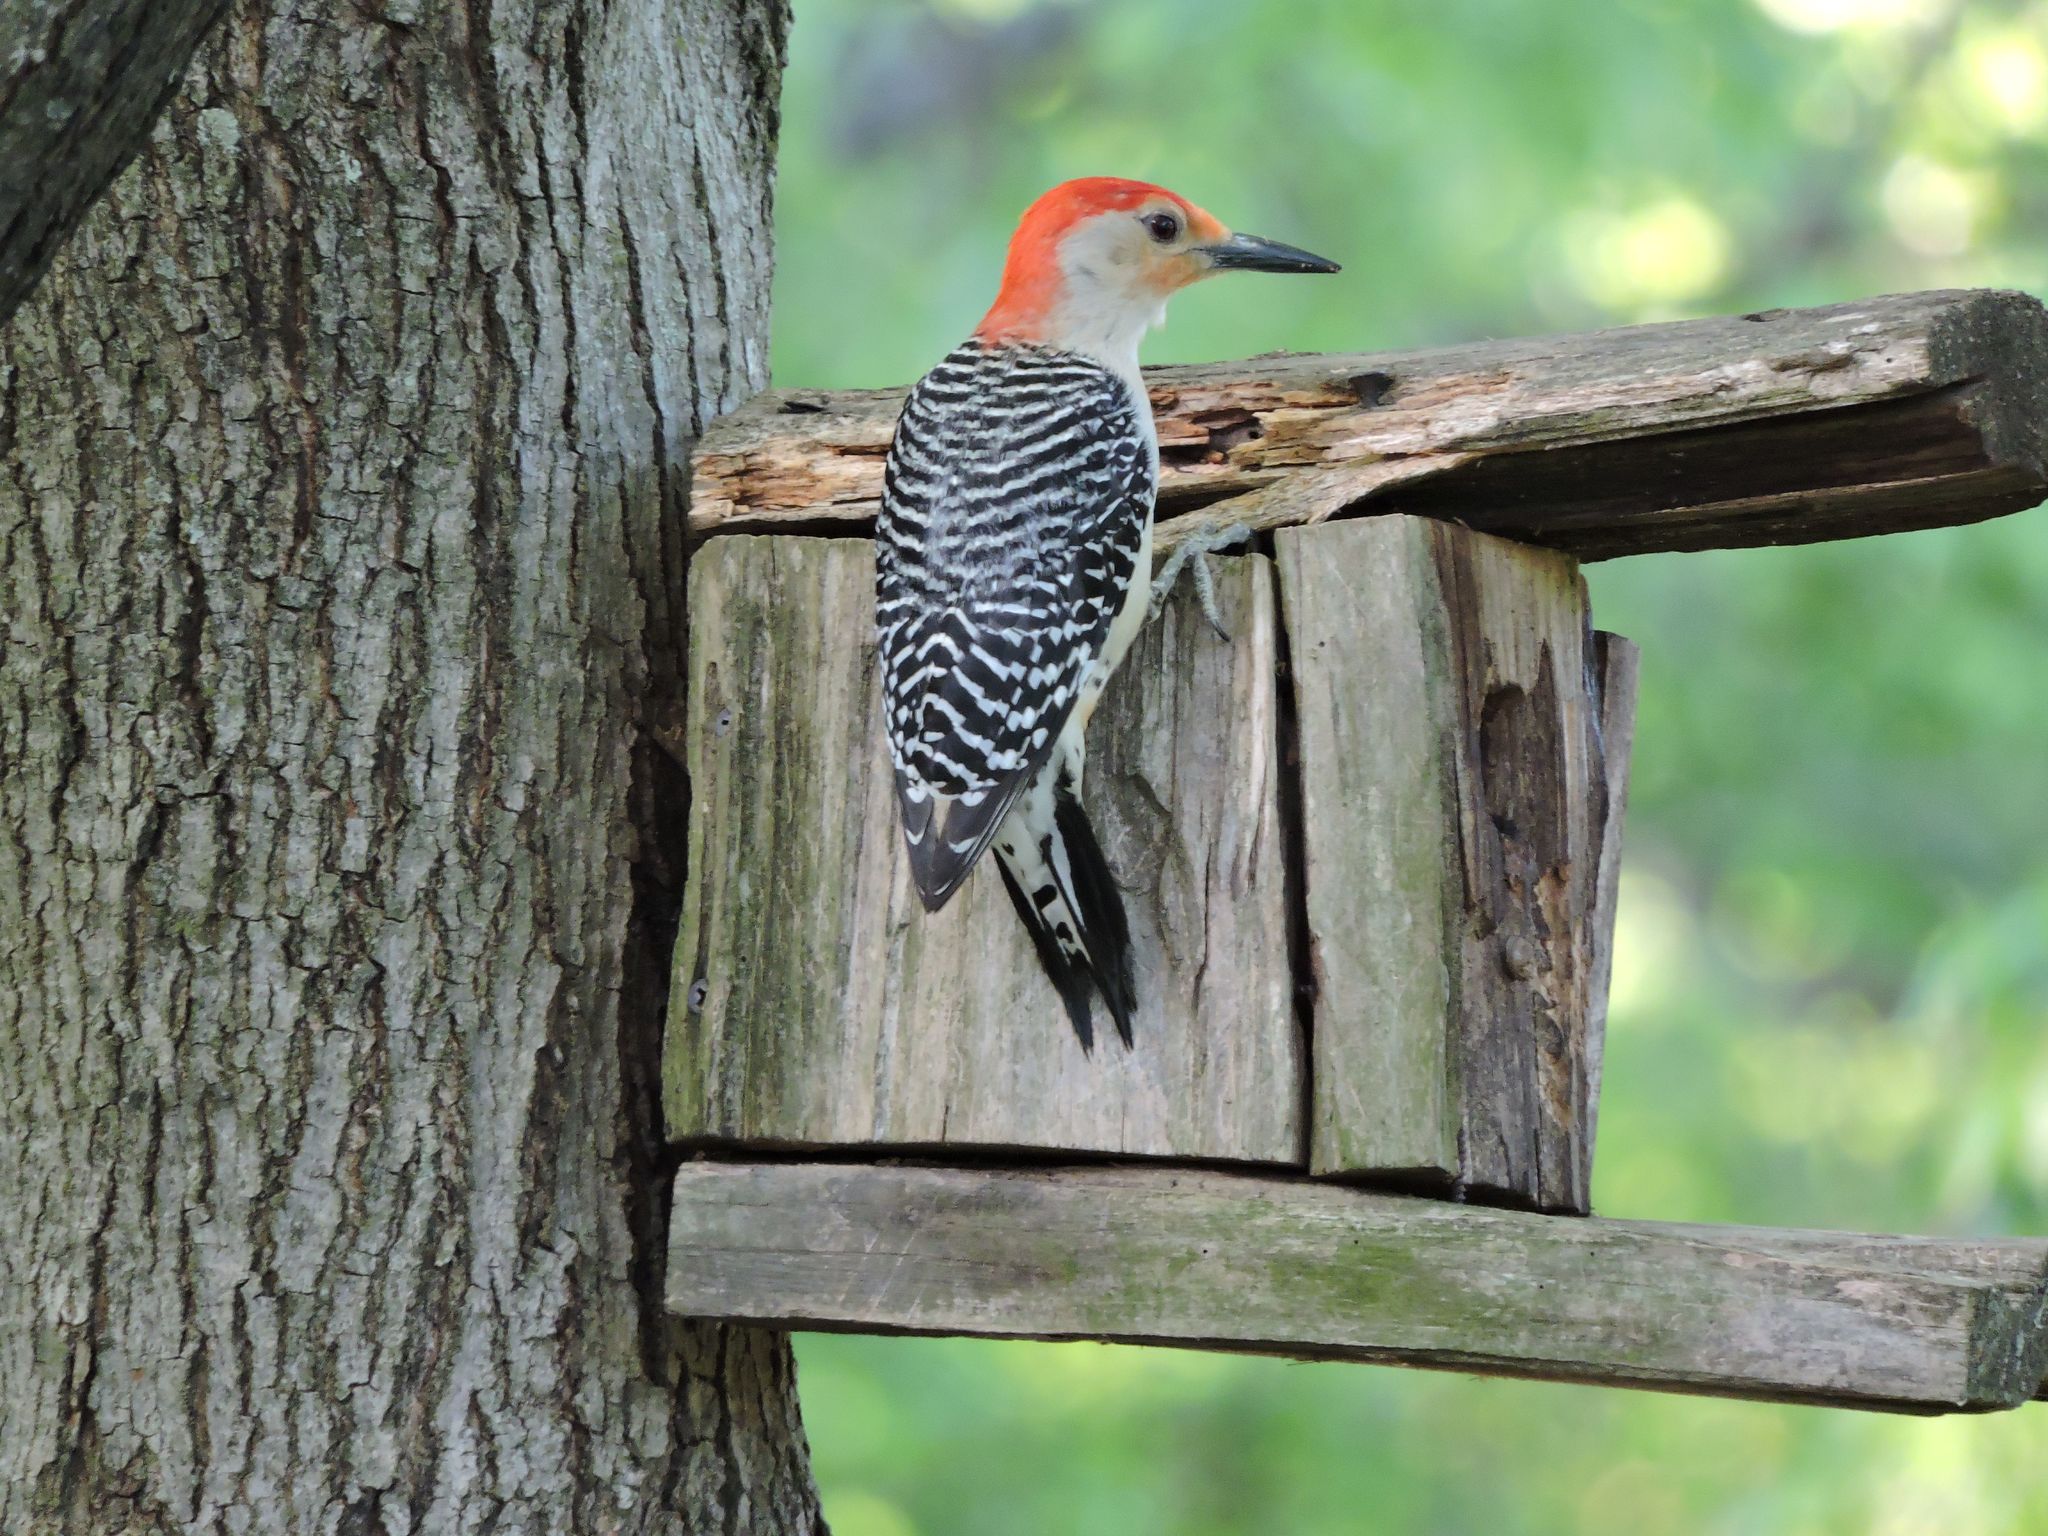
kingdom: Animalia
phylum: Chordata
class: Aves
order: Piciformes
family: Picidae
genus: Melanerpes
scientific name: Melanerpes carolinus
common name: Red-bellied woodpecker
